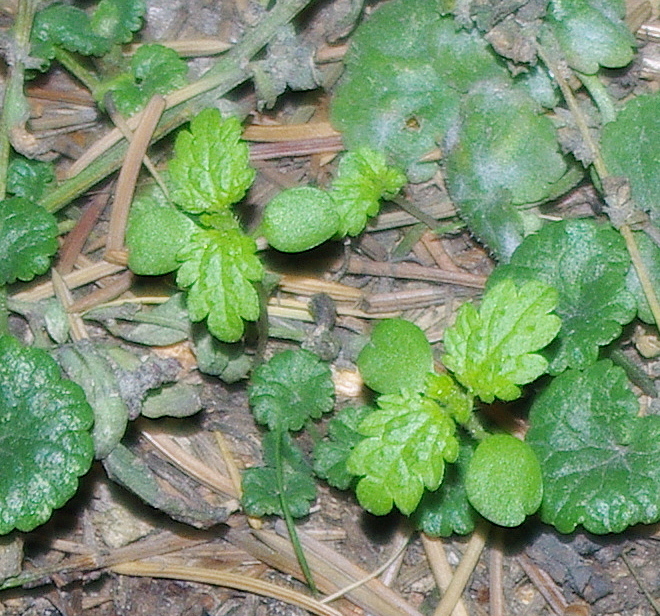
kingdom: Plantae
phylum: Tracheophyta
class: Magnoliopsida
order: Rosales
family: Urticaceae
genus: Urtica
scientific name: Urtica urens
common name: Dwarf nettle
